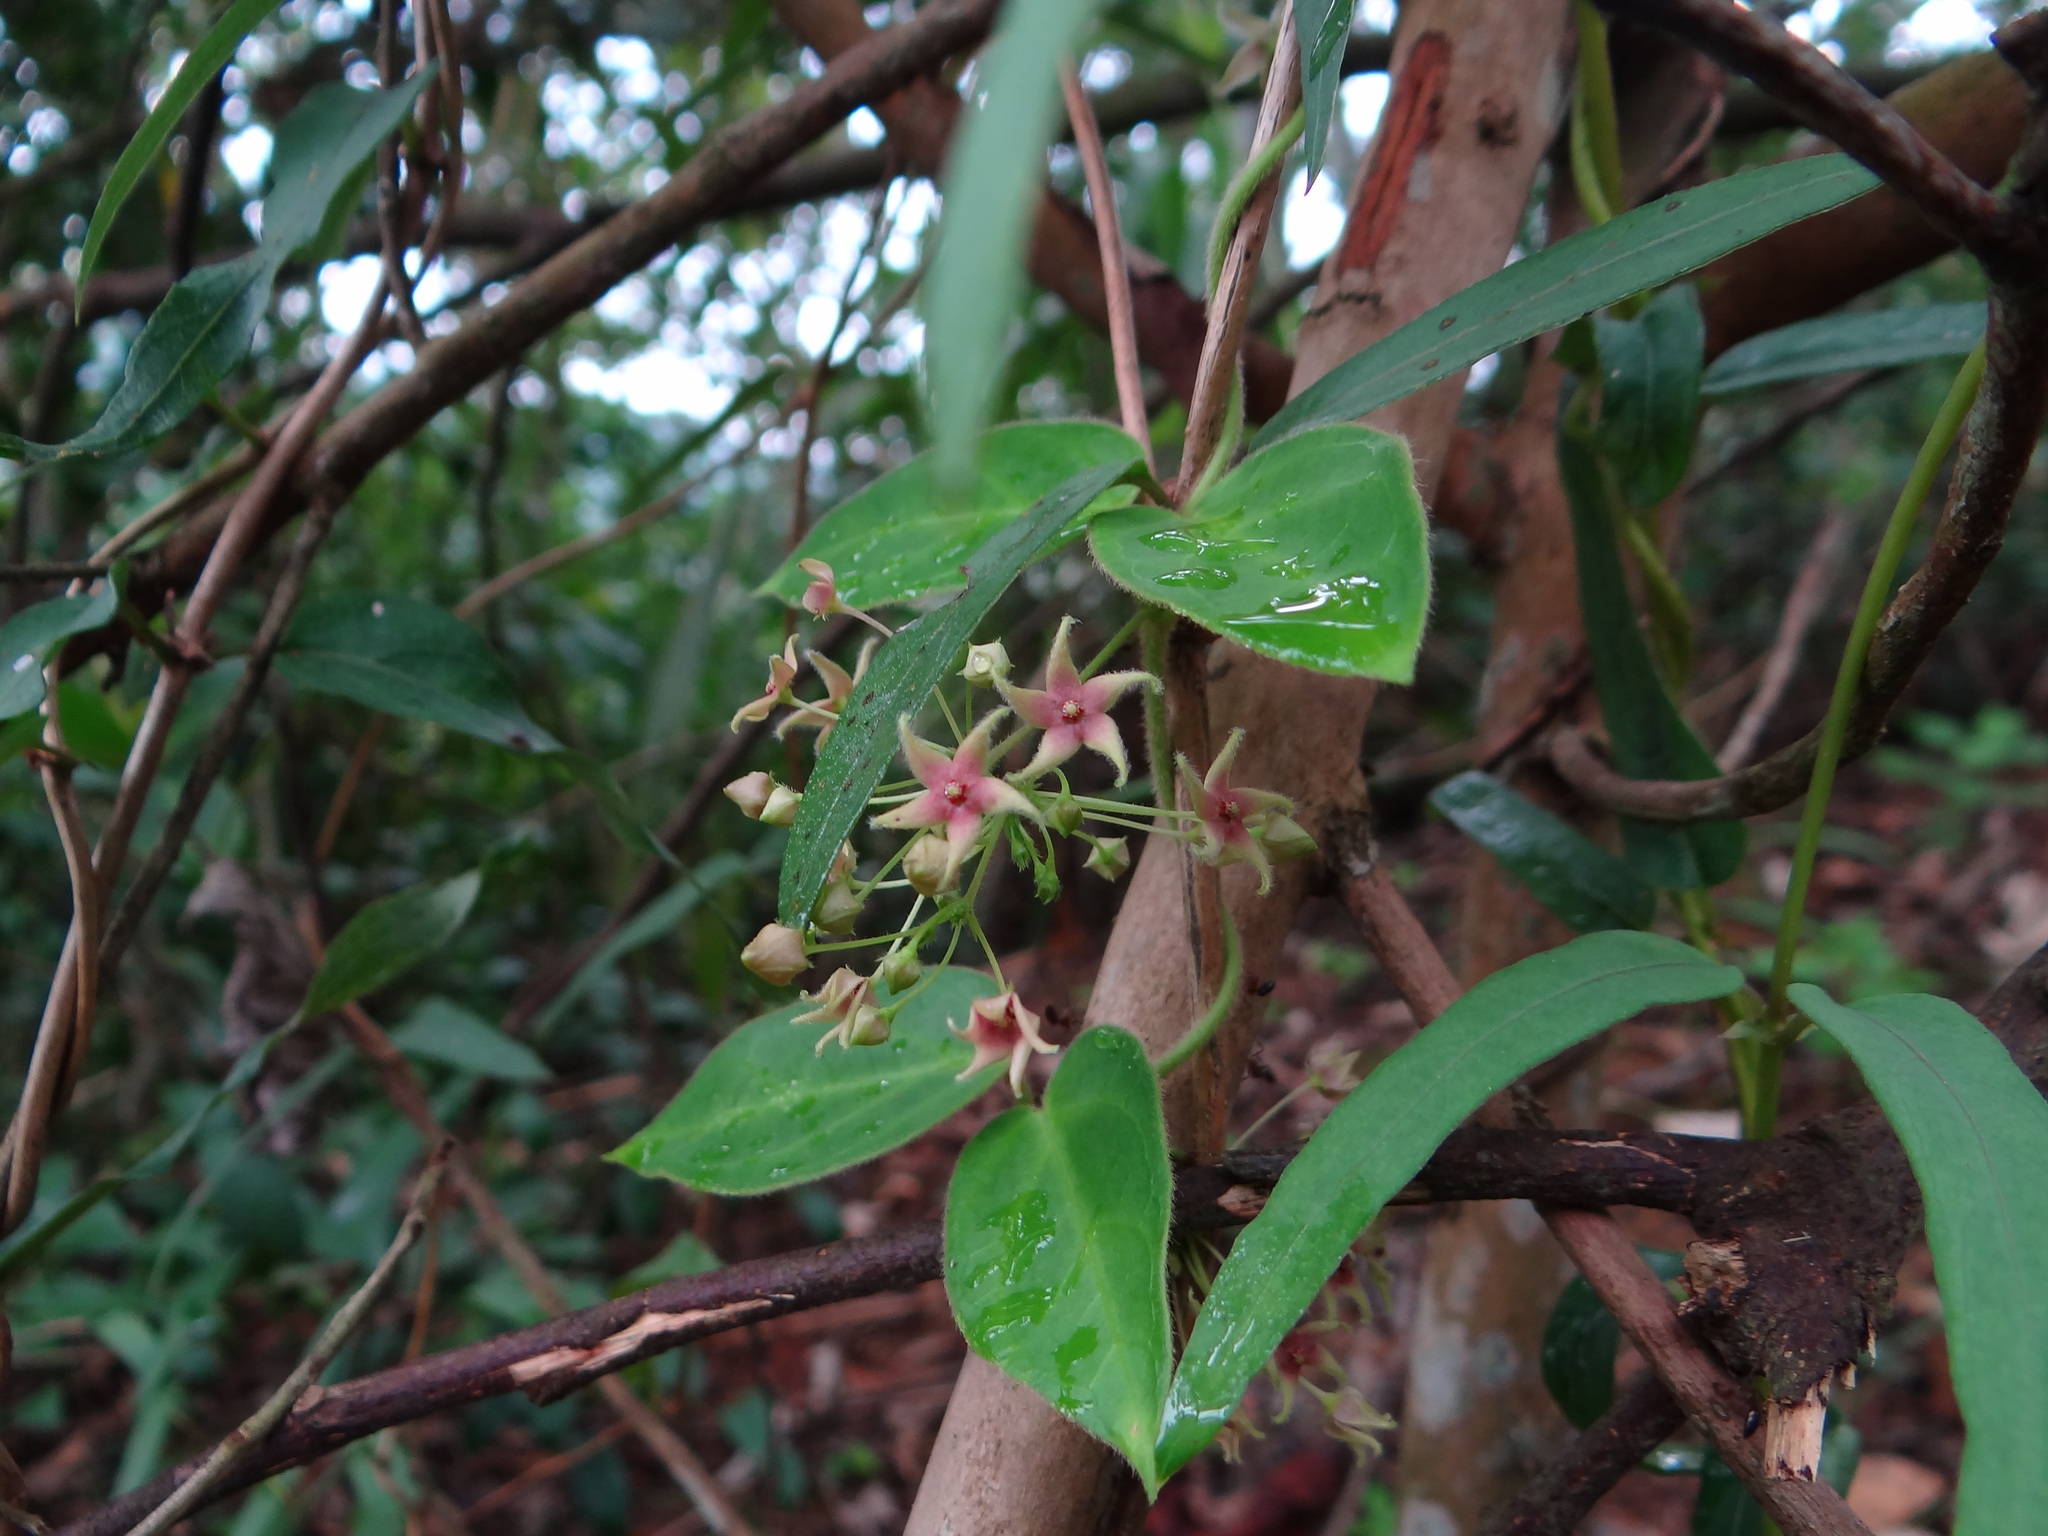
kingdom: Plantae
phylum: Tracheophyta
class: Magnoliopsida
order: Gentianales
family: Apocynaceae
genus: Vincetoxicum
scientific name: Vincetoxicum hirsutum
